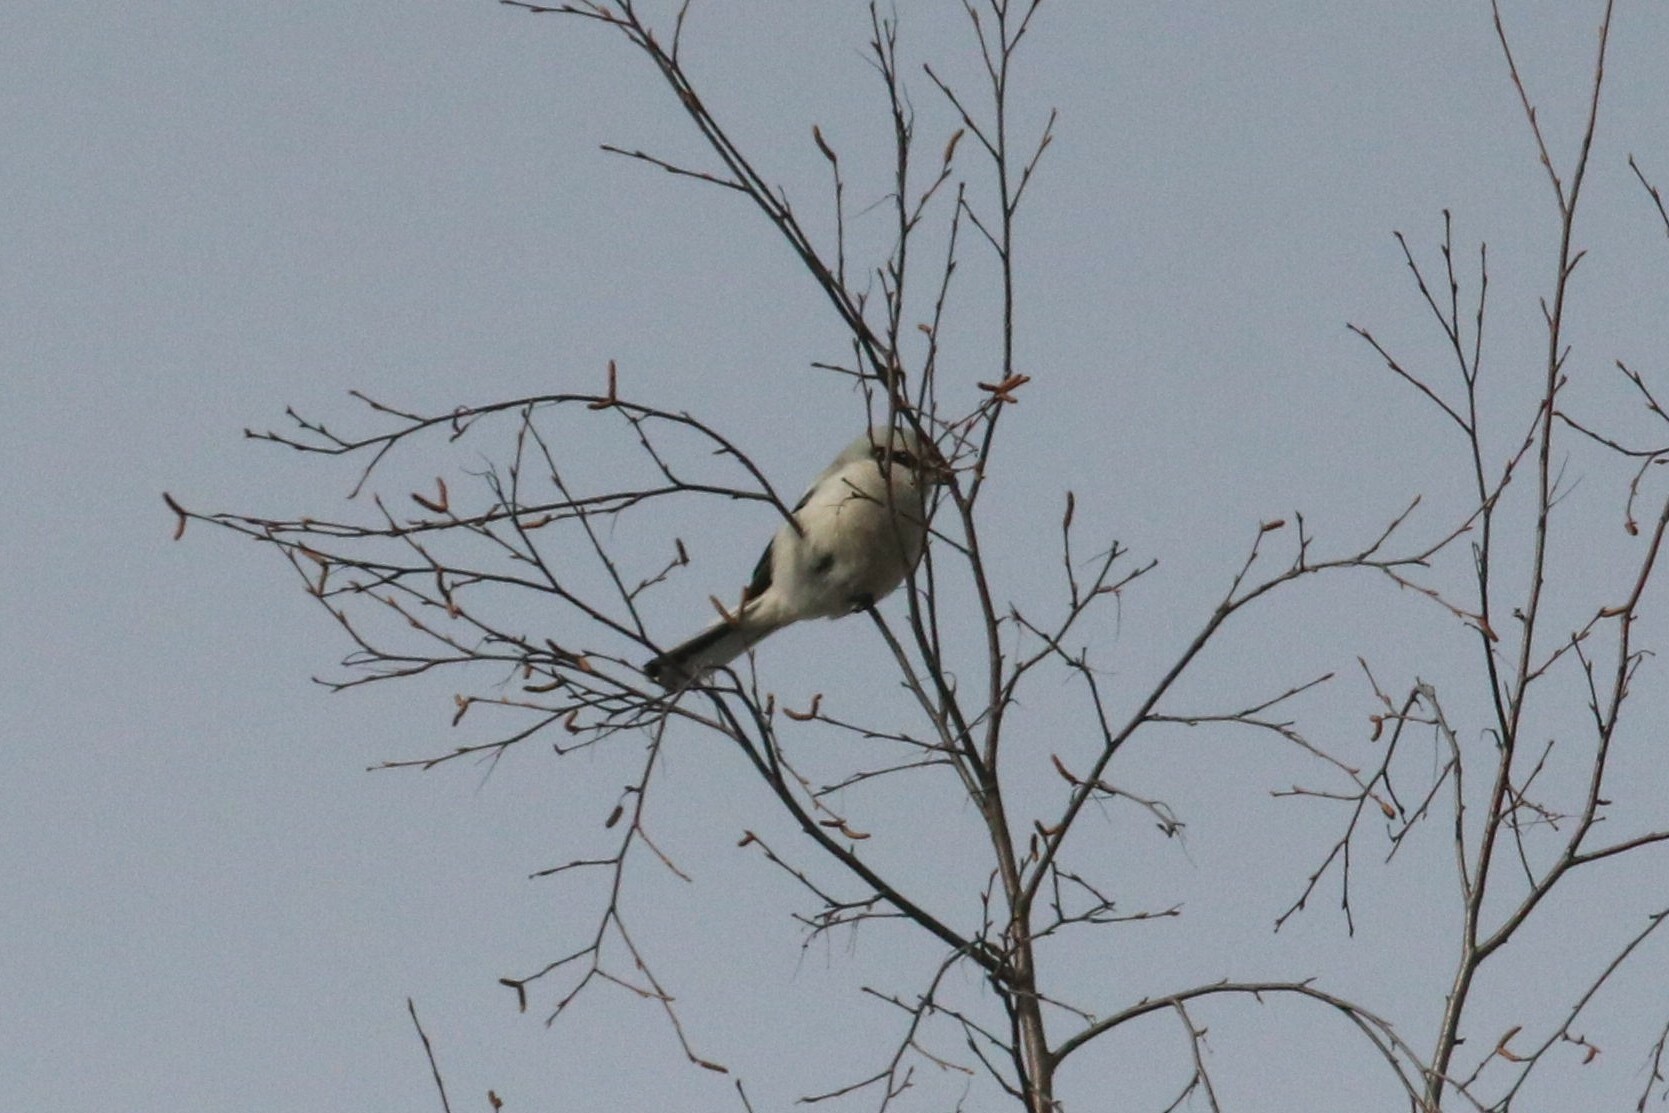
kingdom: Animalia
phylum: Chordata
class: Aves
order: Passeriformes
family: Laniidae
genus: Lanius
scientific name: Lanius excubitor
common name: Great grey shrike
